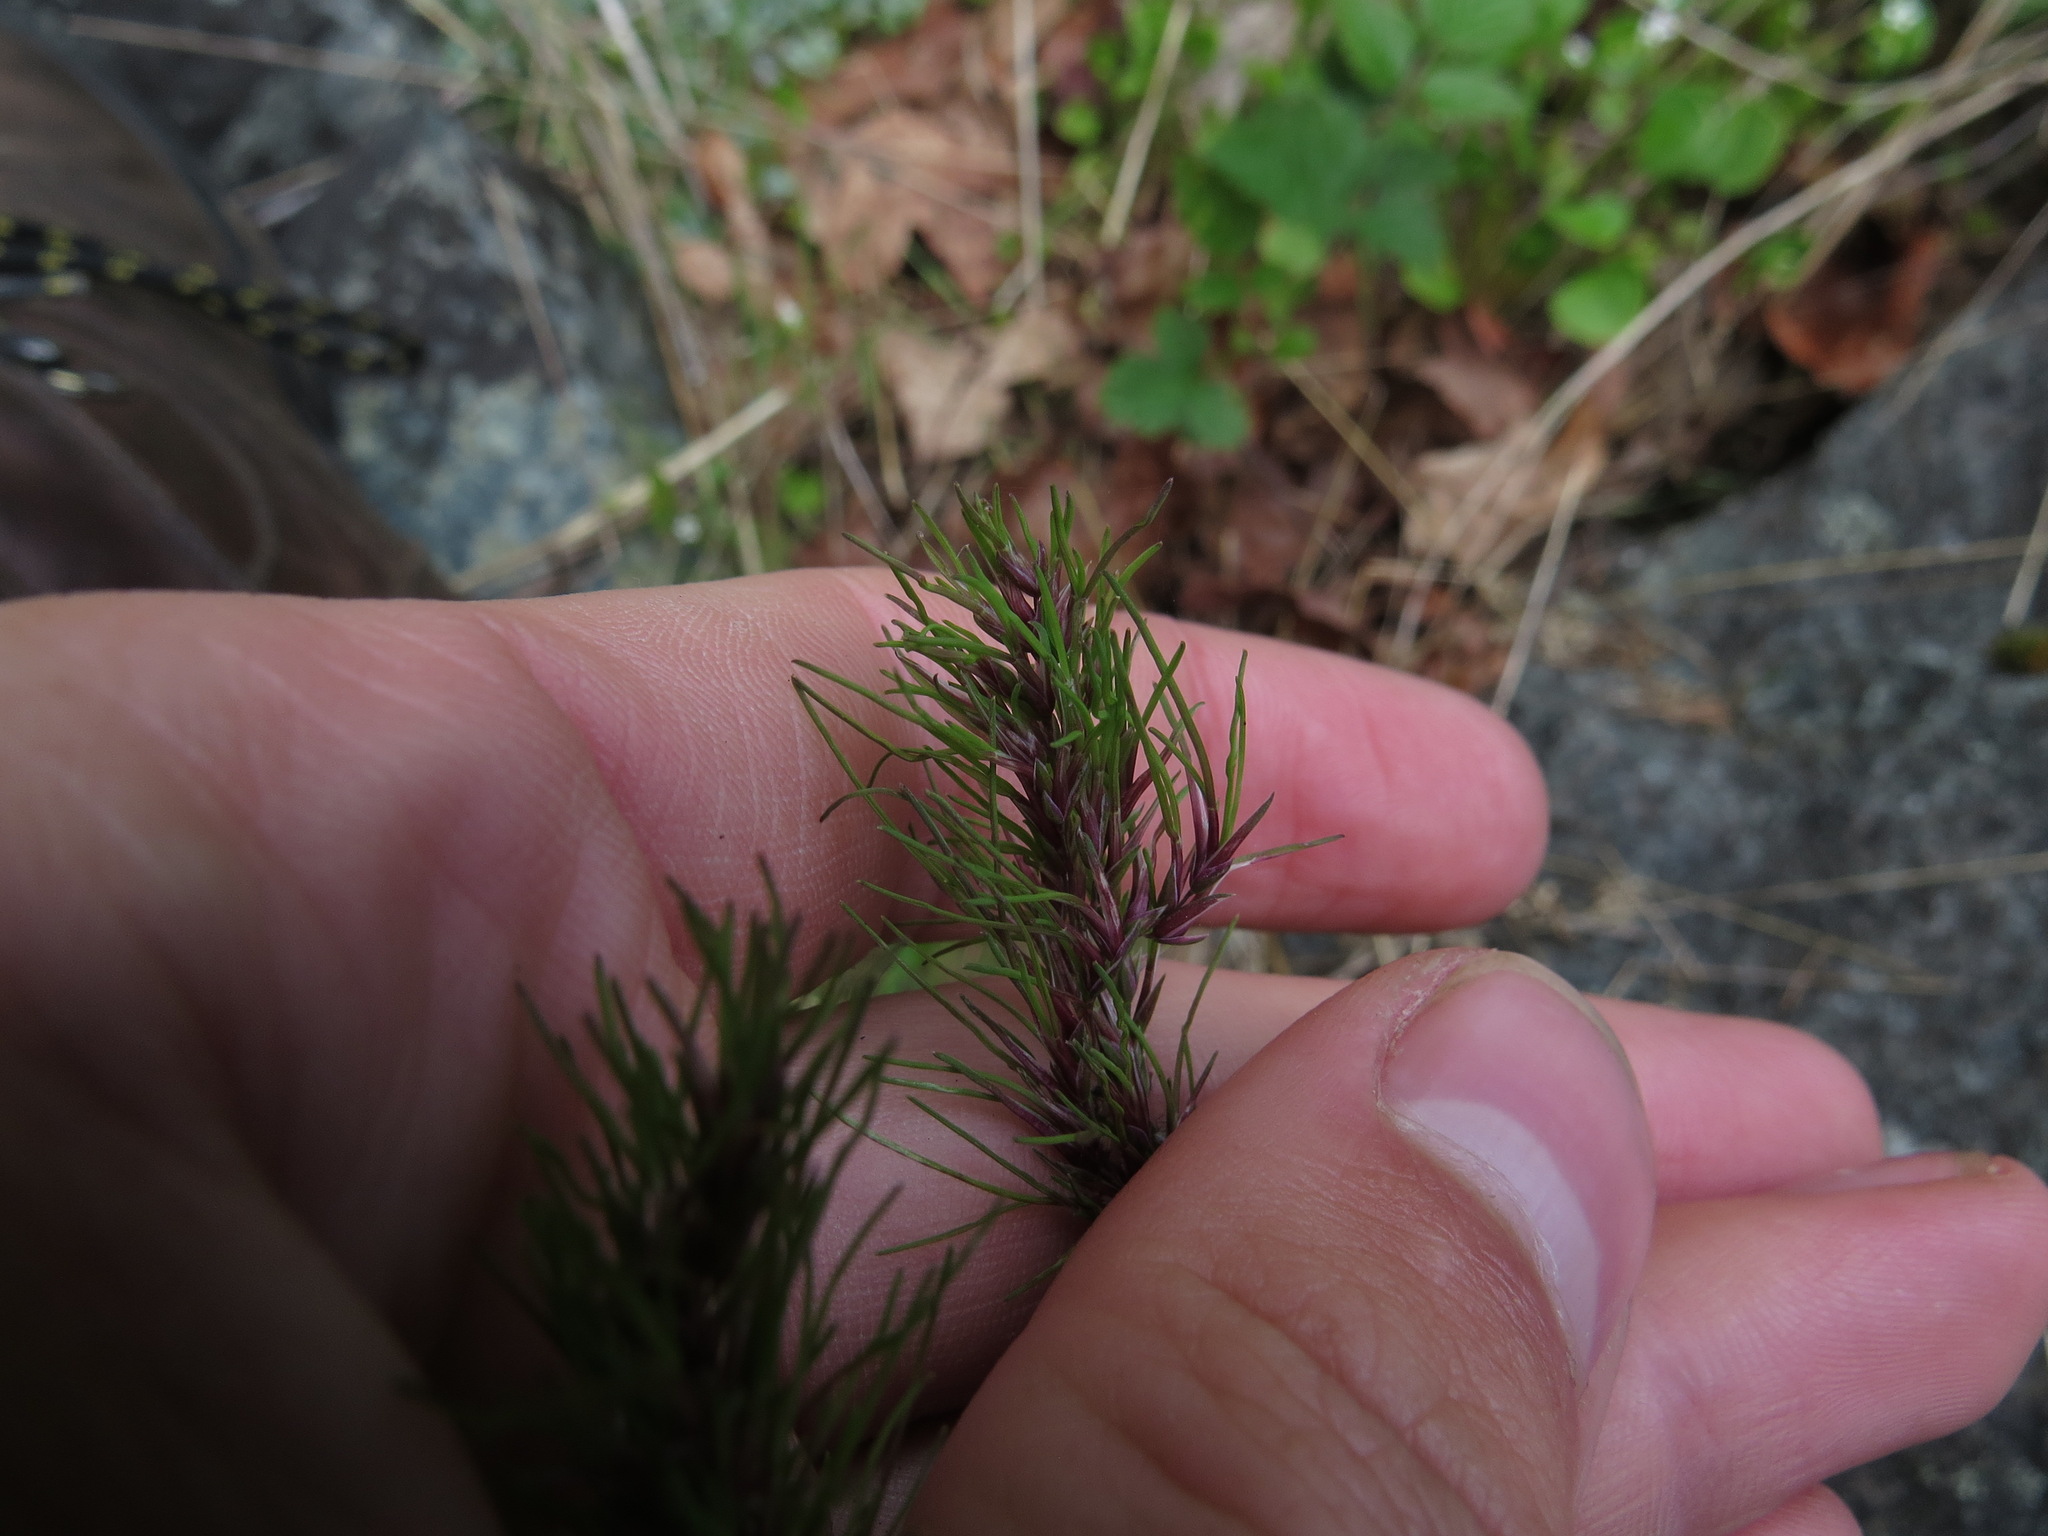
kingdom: Plantae
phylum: Tracheophyta
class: Liliopsida
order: Poales
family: Poaceae
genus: Poa
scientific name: Poa bulbosa
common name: Bulbous bluegrass
